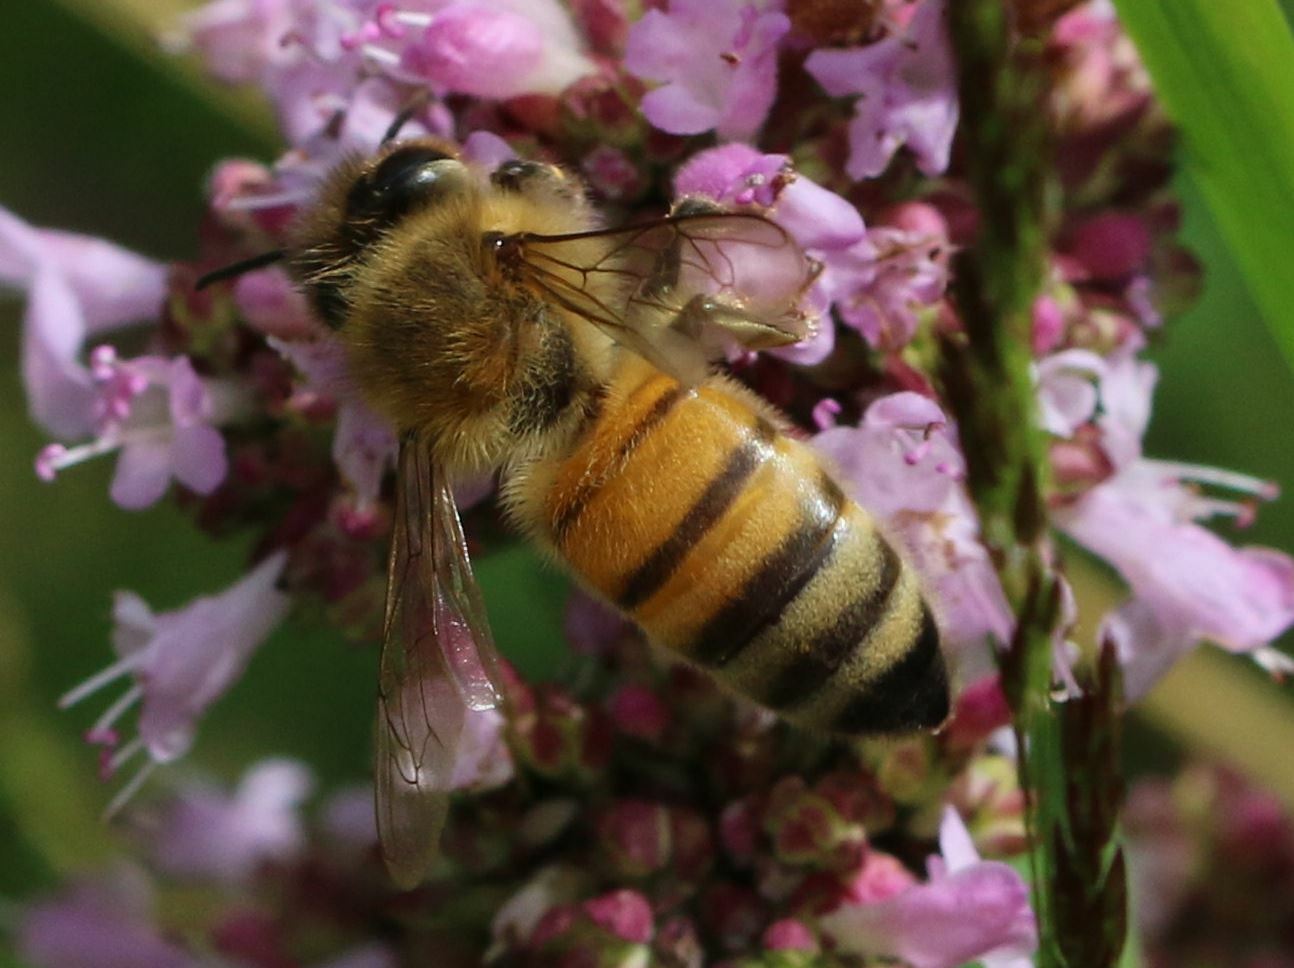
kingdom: Animalia
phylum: Arthropoda
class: Insecta
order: Hymenoptera
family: Apidae
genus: Apis
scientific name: Apis mellifera
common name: Honey bee
